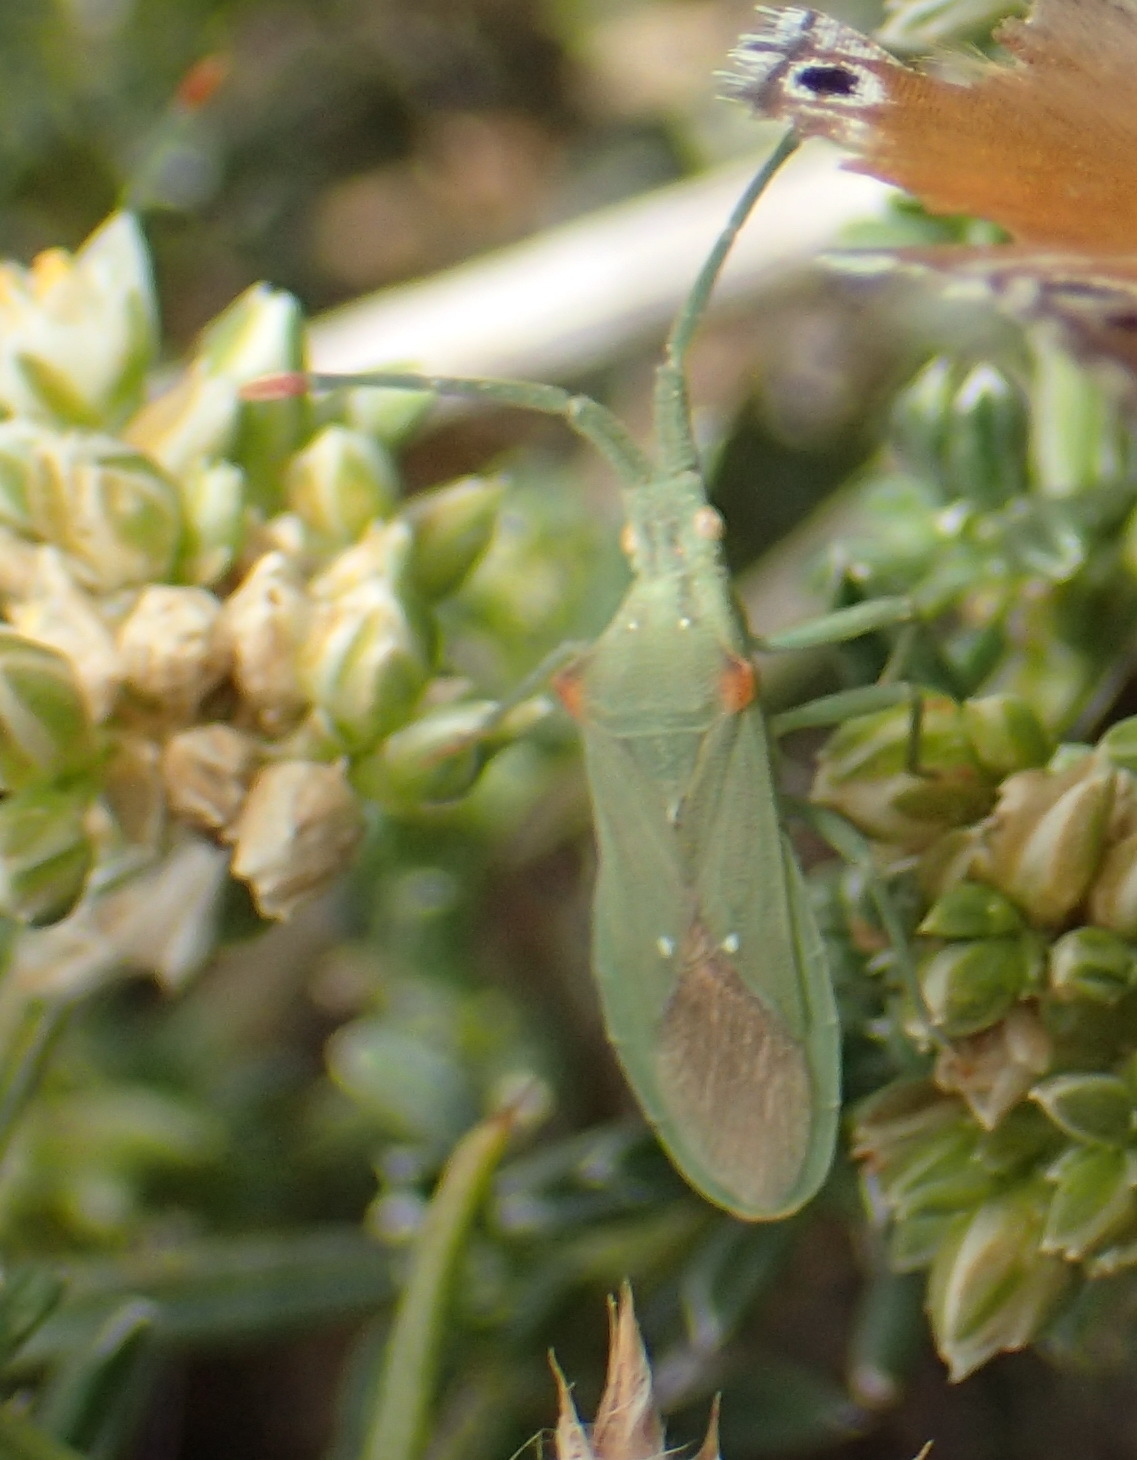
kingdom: Animalia
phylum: Arthropoda
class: Insecta
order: Hemiptera
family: Coreidae
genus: Brotheolus
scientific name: Brotheolus viridis
